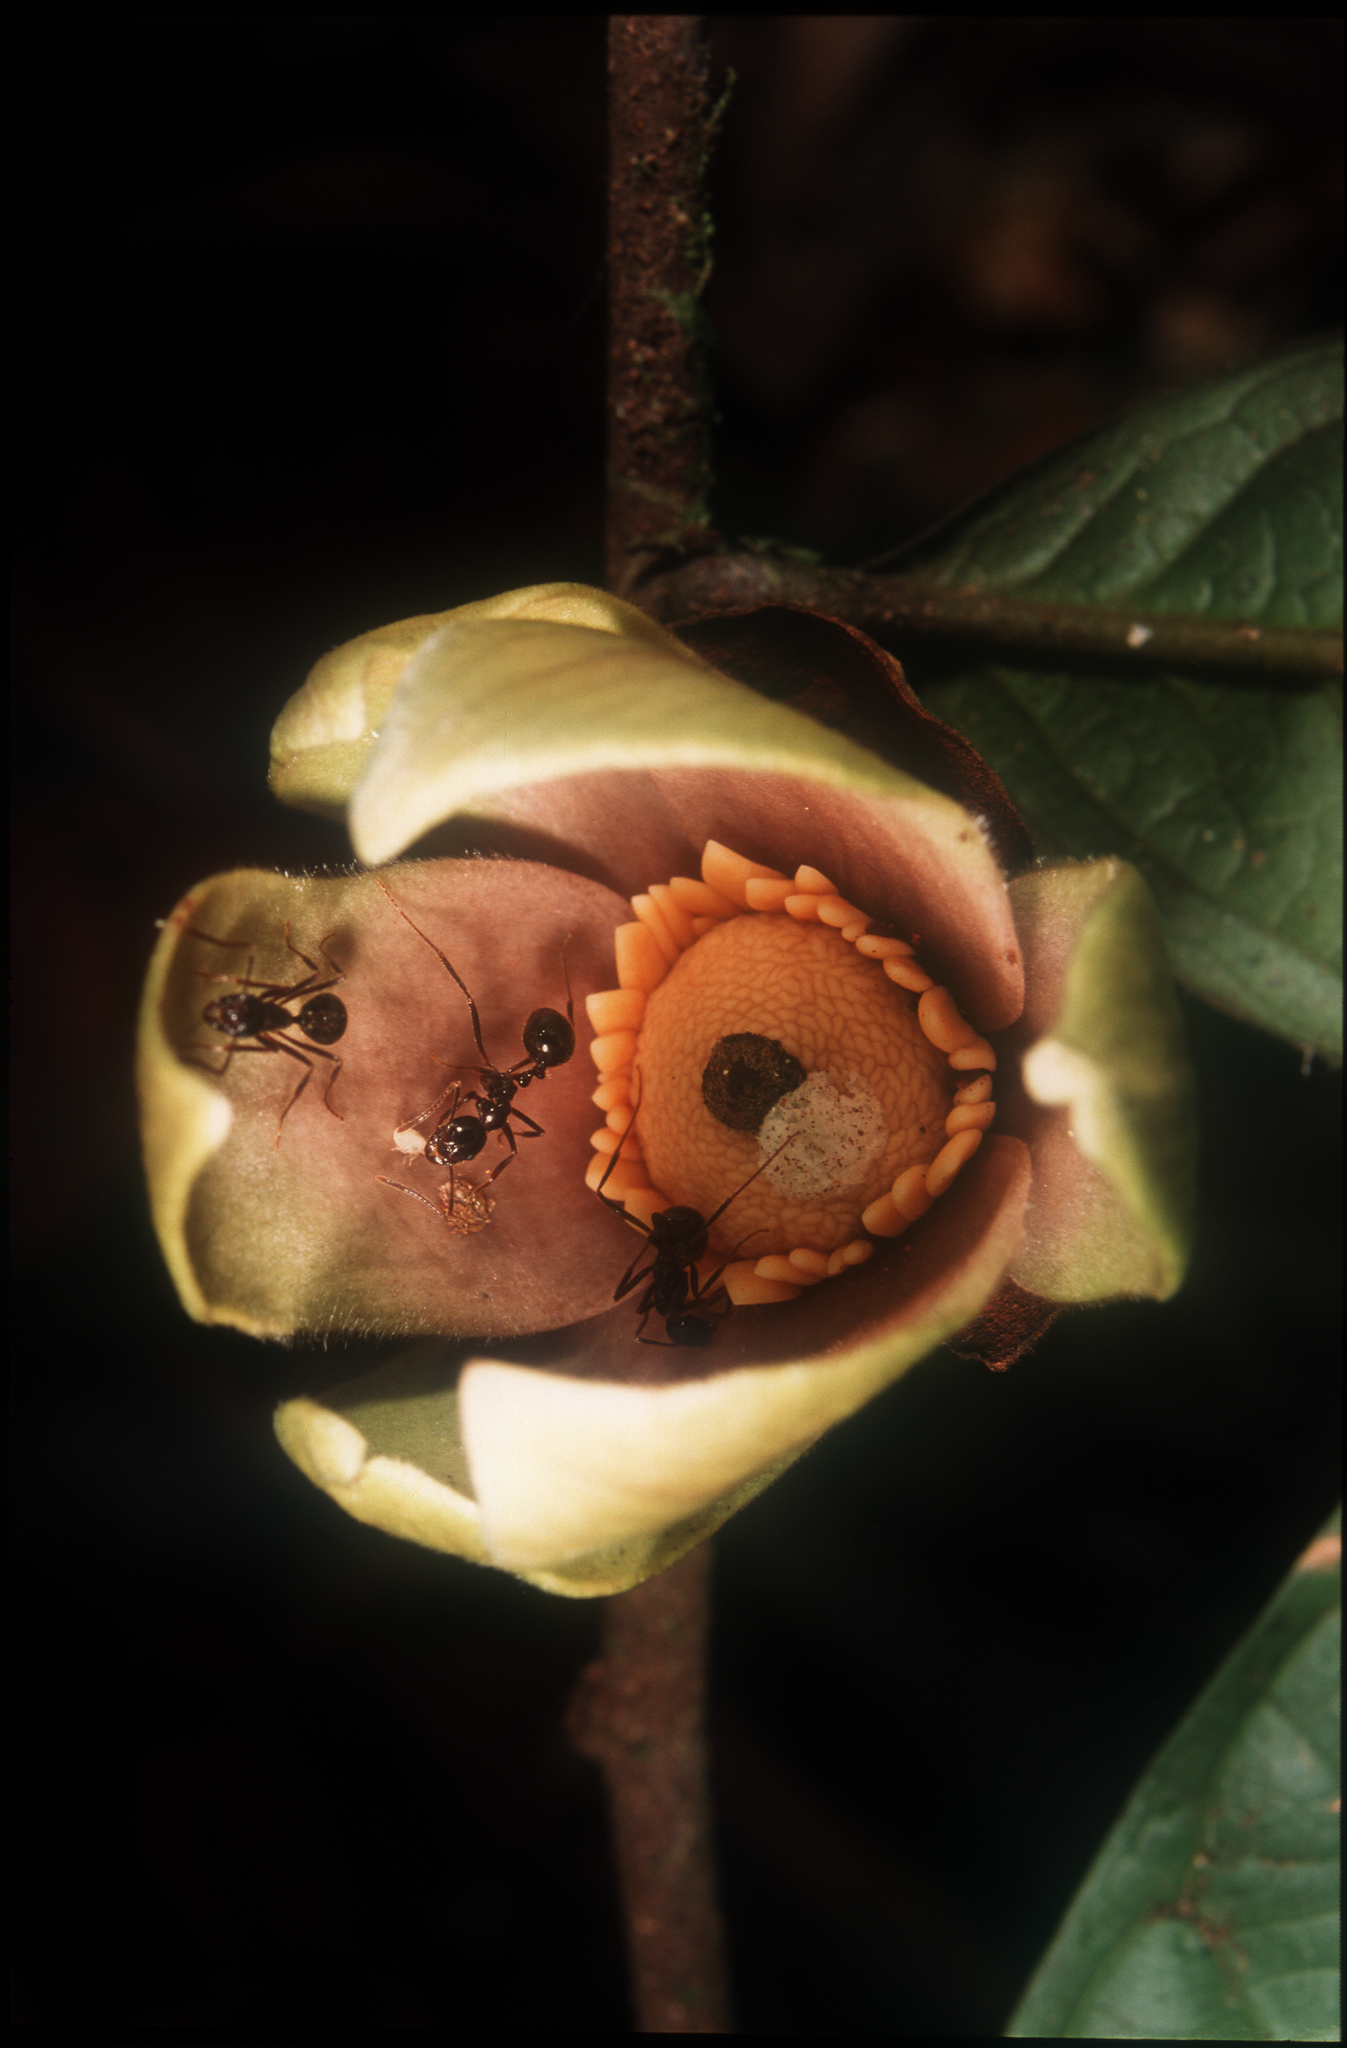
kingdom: Plantae
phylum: Tracheophyta
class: Magnoliopsida
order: Magnoliales
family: Annonaceae
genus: Fusaea
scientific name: Fusaea longifolia
